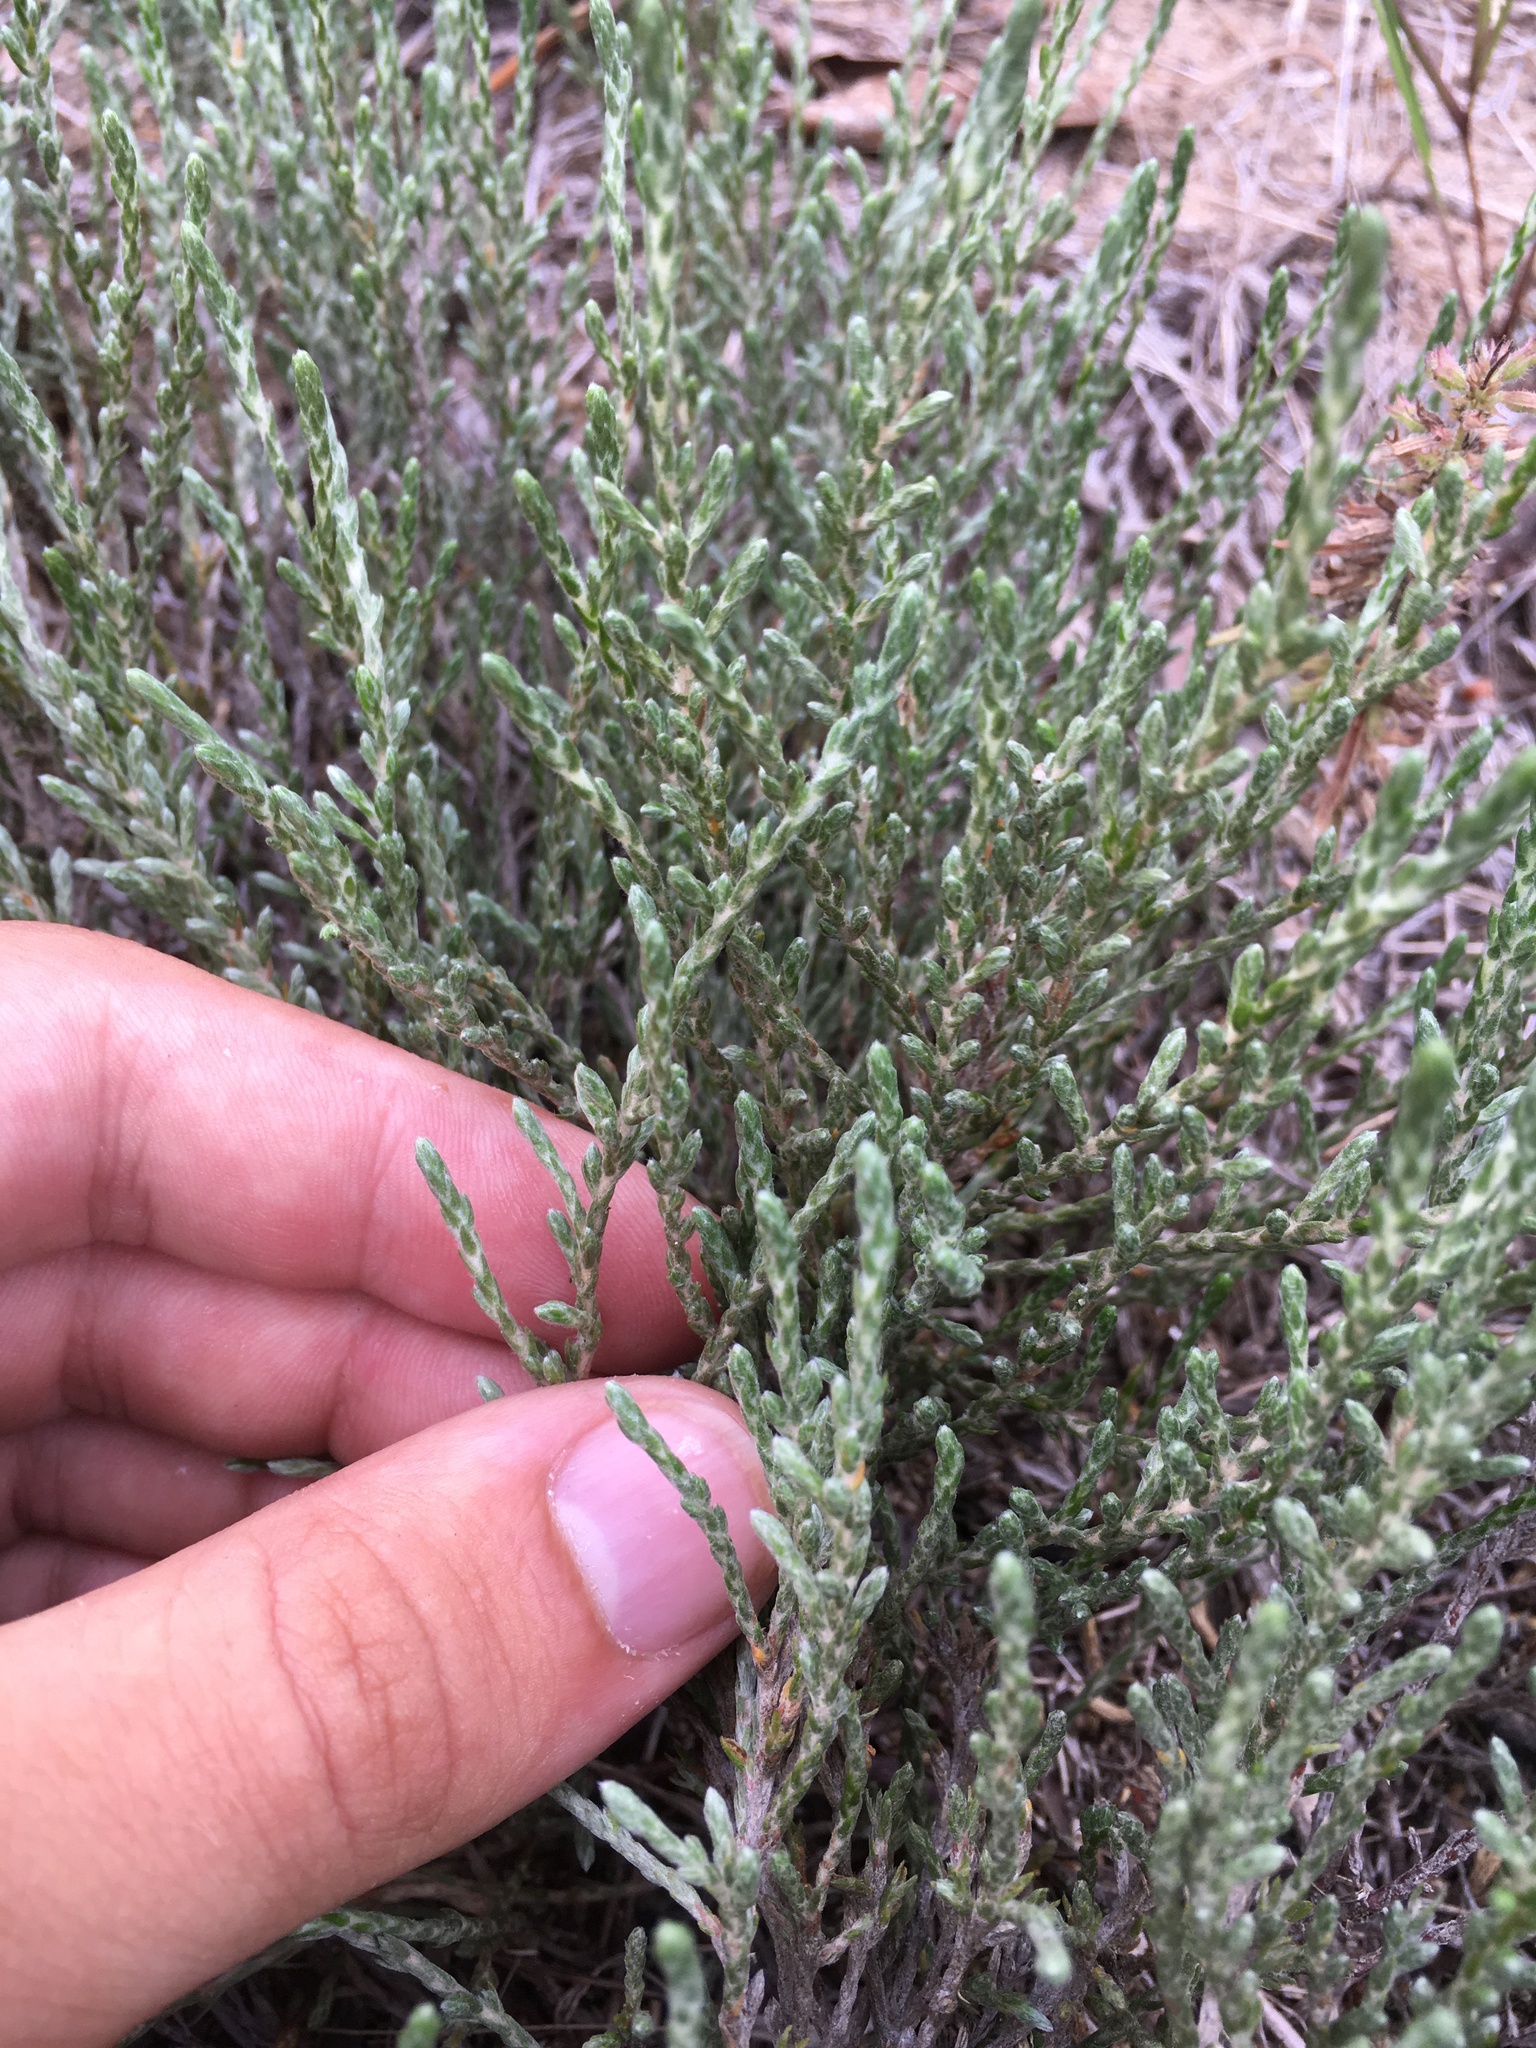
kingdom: Plantae
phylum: Tracheophyta
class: Magnoliopsida
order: Malvales
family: Cistaceae
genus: Hudsonia
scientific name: Hudsonia tomentosa
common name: Beach-heath
